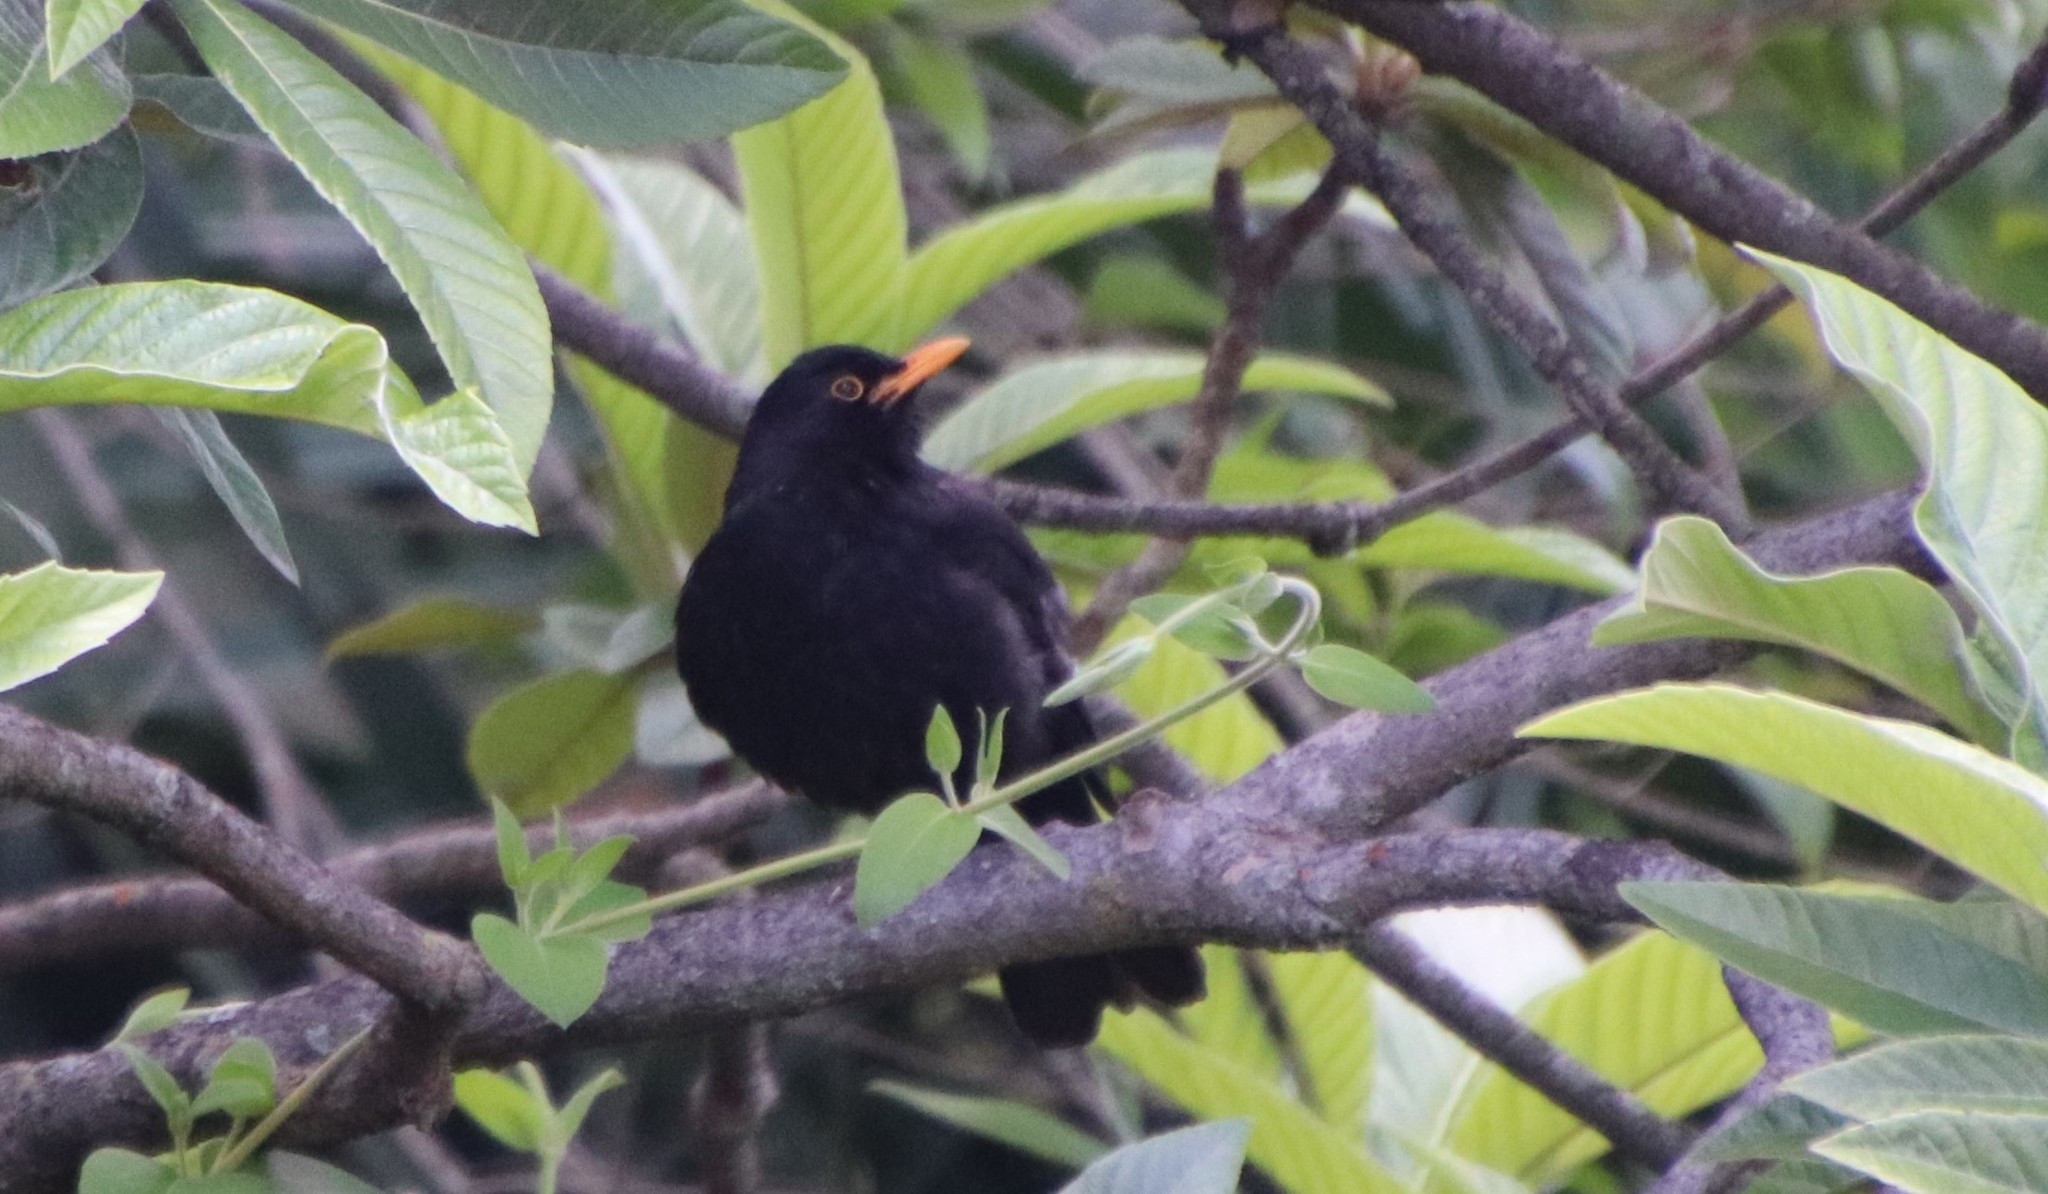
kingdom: Animalia
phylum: Chordata
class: Aves
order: Passeriformes
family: Turdidae
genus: Turdus
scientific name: Turdus merula
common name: Common blackbird
